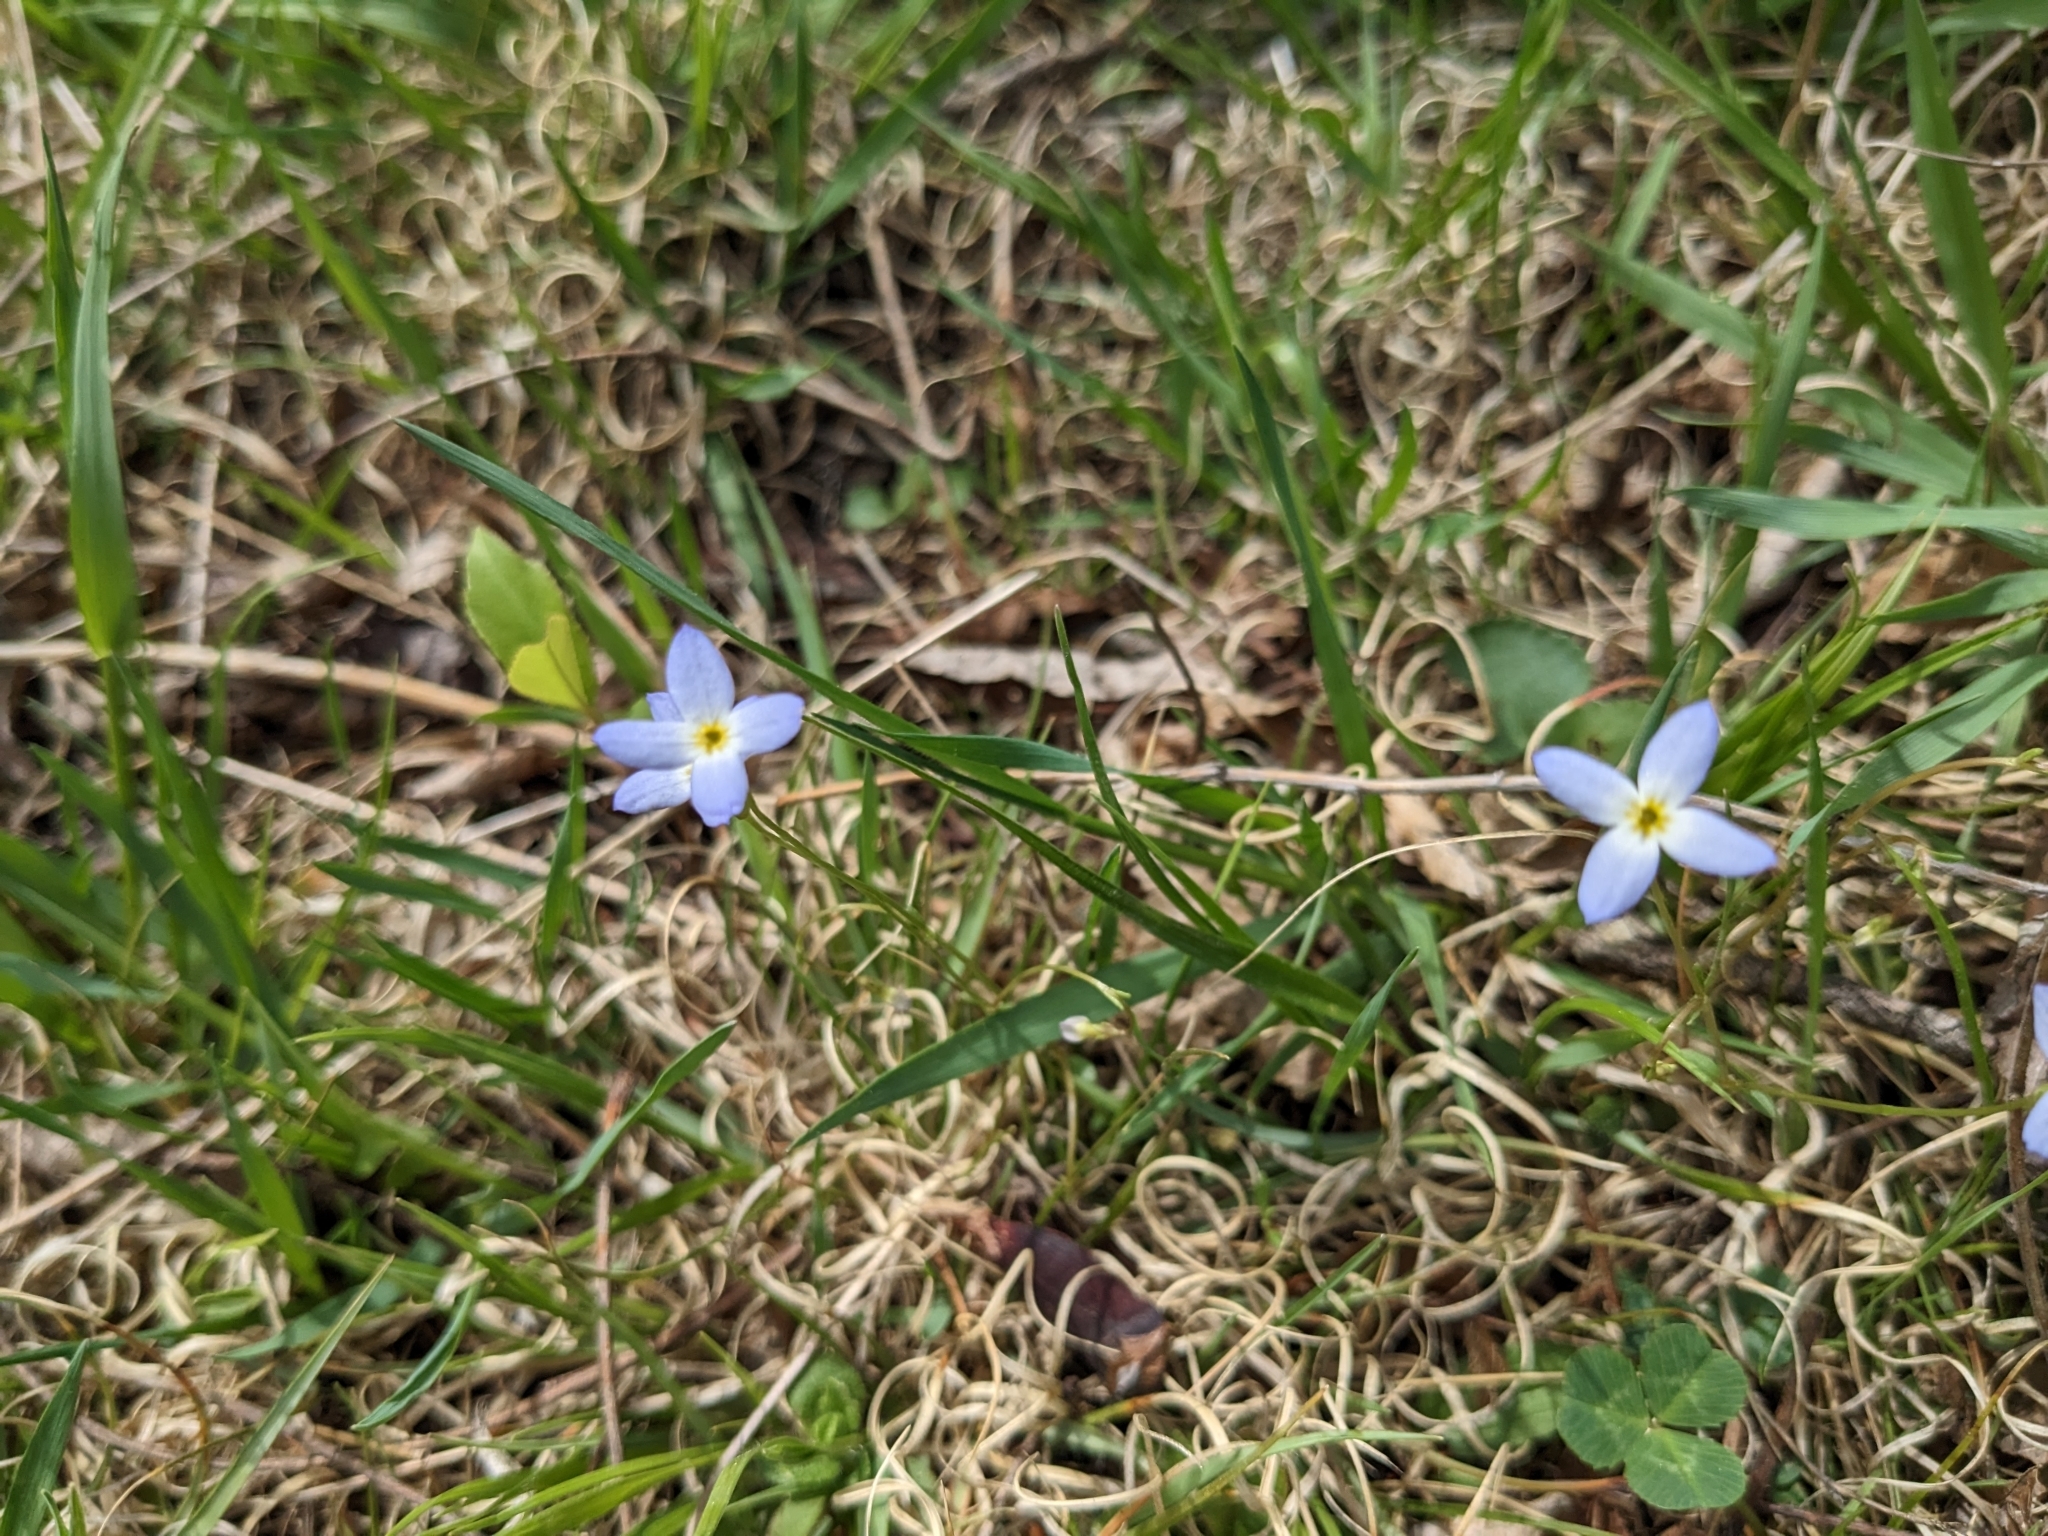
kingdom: Plantae
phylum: Tracheophyta
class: Magnoliopsida
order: Gentianales
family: Rubiaceae
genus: Houstonia
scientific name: Houstonia caerulea
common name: Bluets
